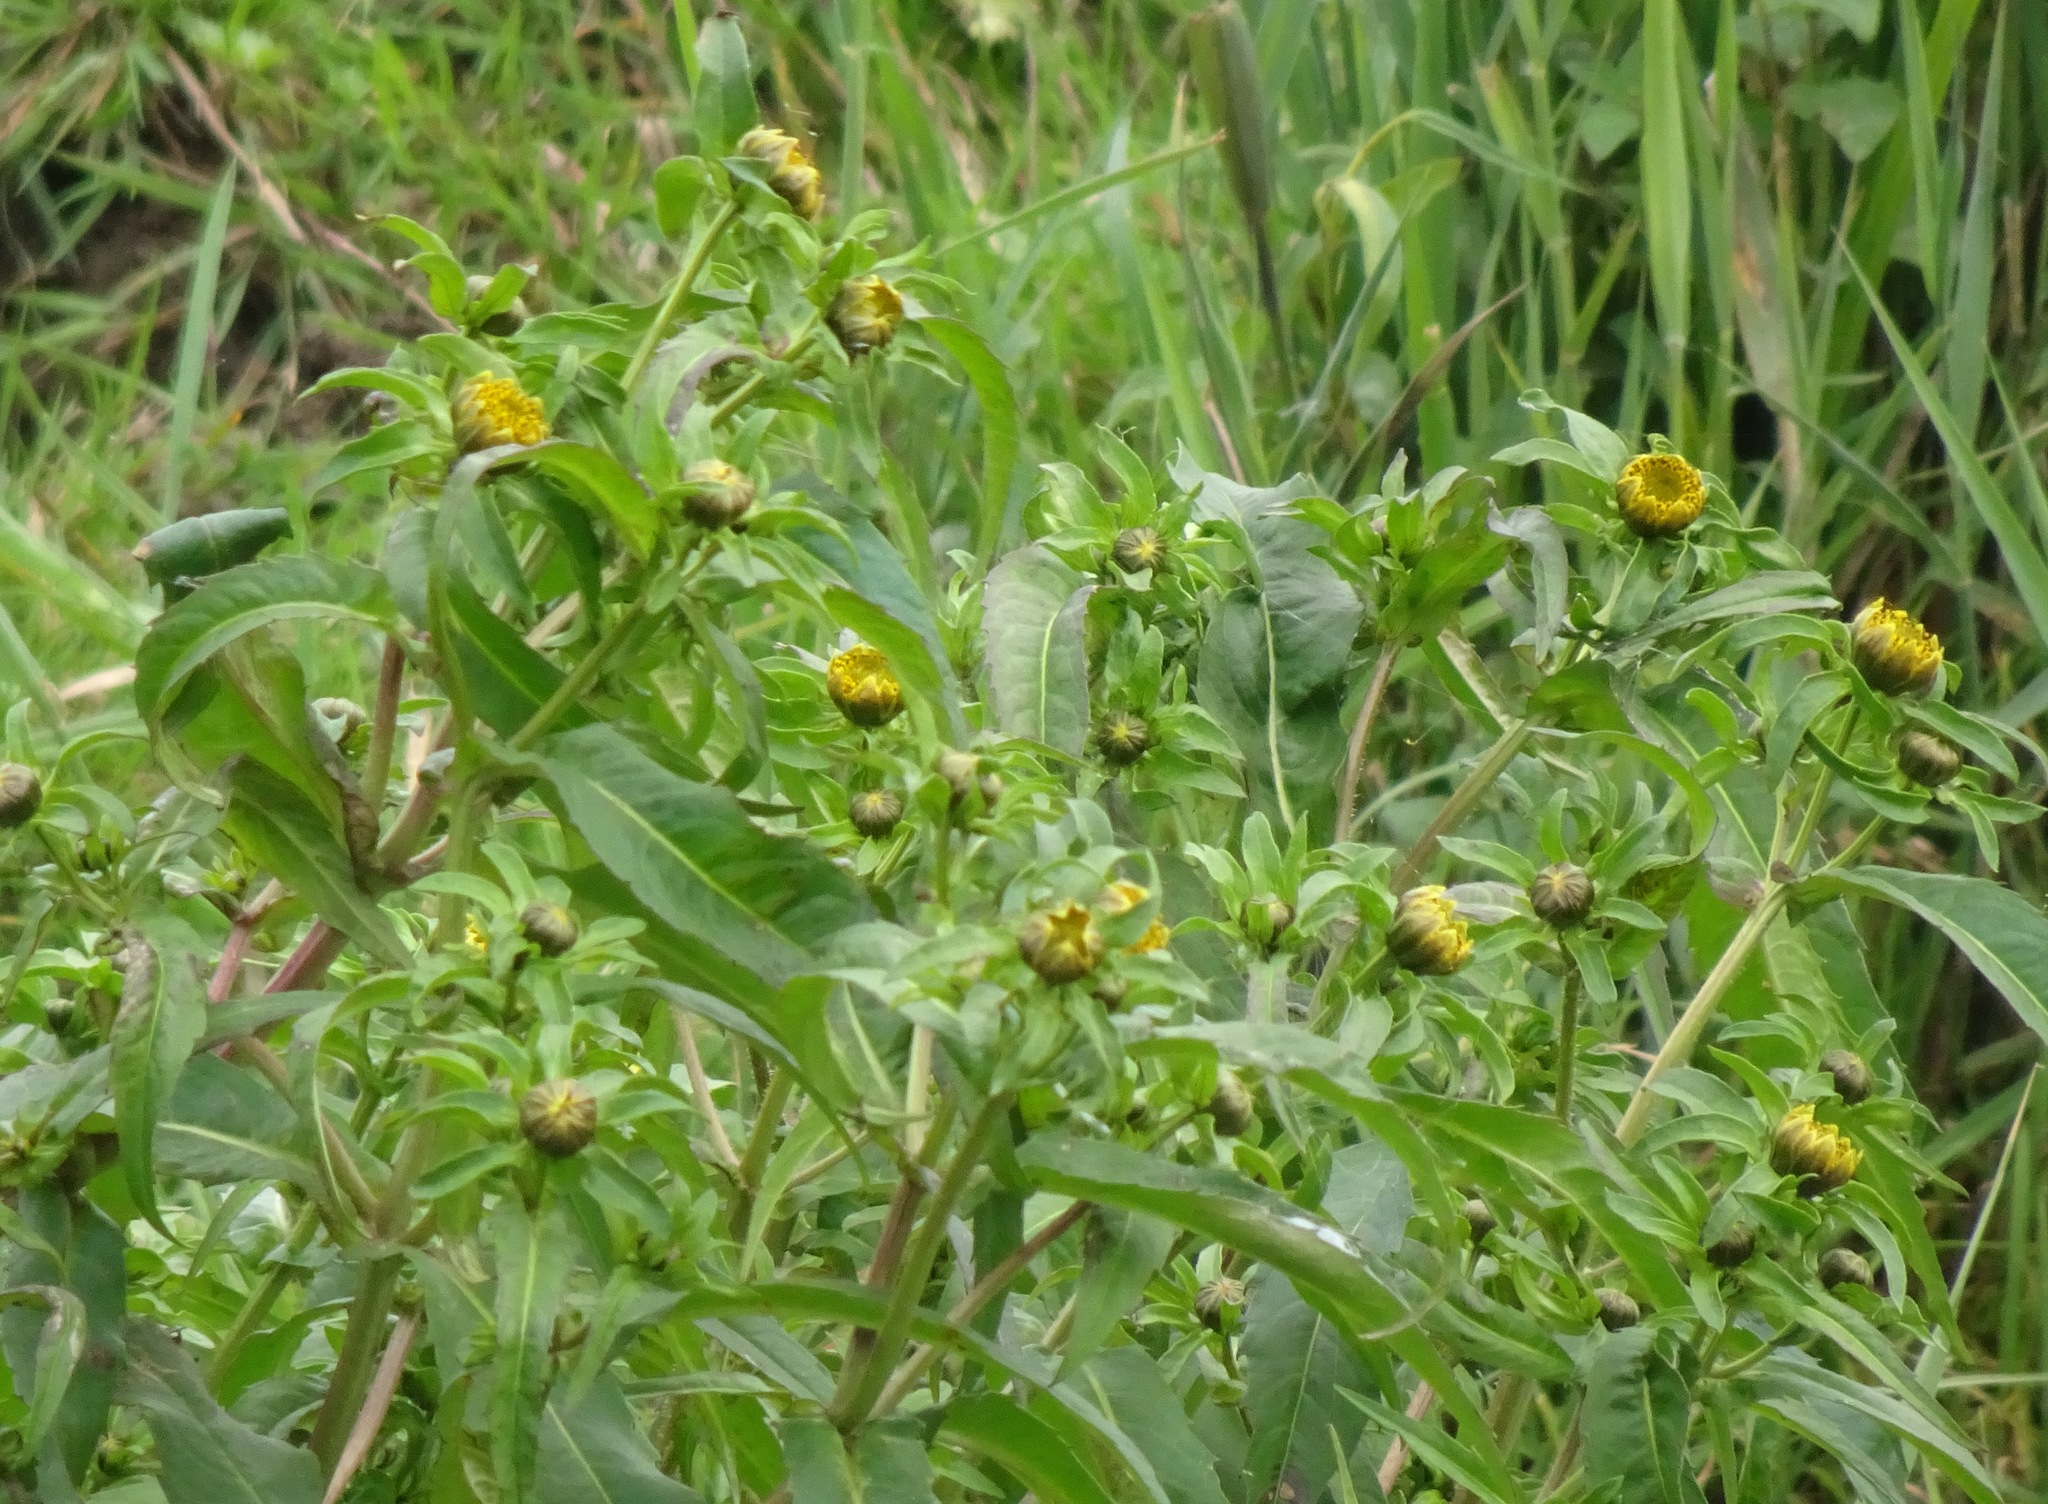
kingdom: Plantae
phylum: Tracheophyta
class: Magnoliopsida
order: Asterales
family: Asteraceae
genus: Bidens
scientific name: Bidens cernua
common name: Nodding bur-marigold
